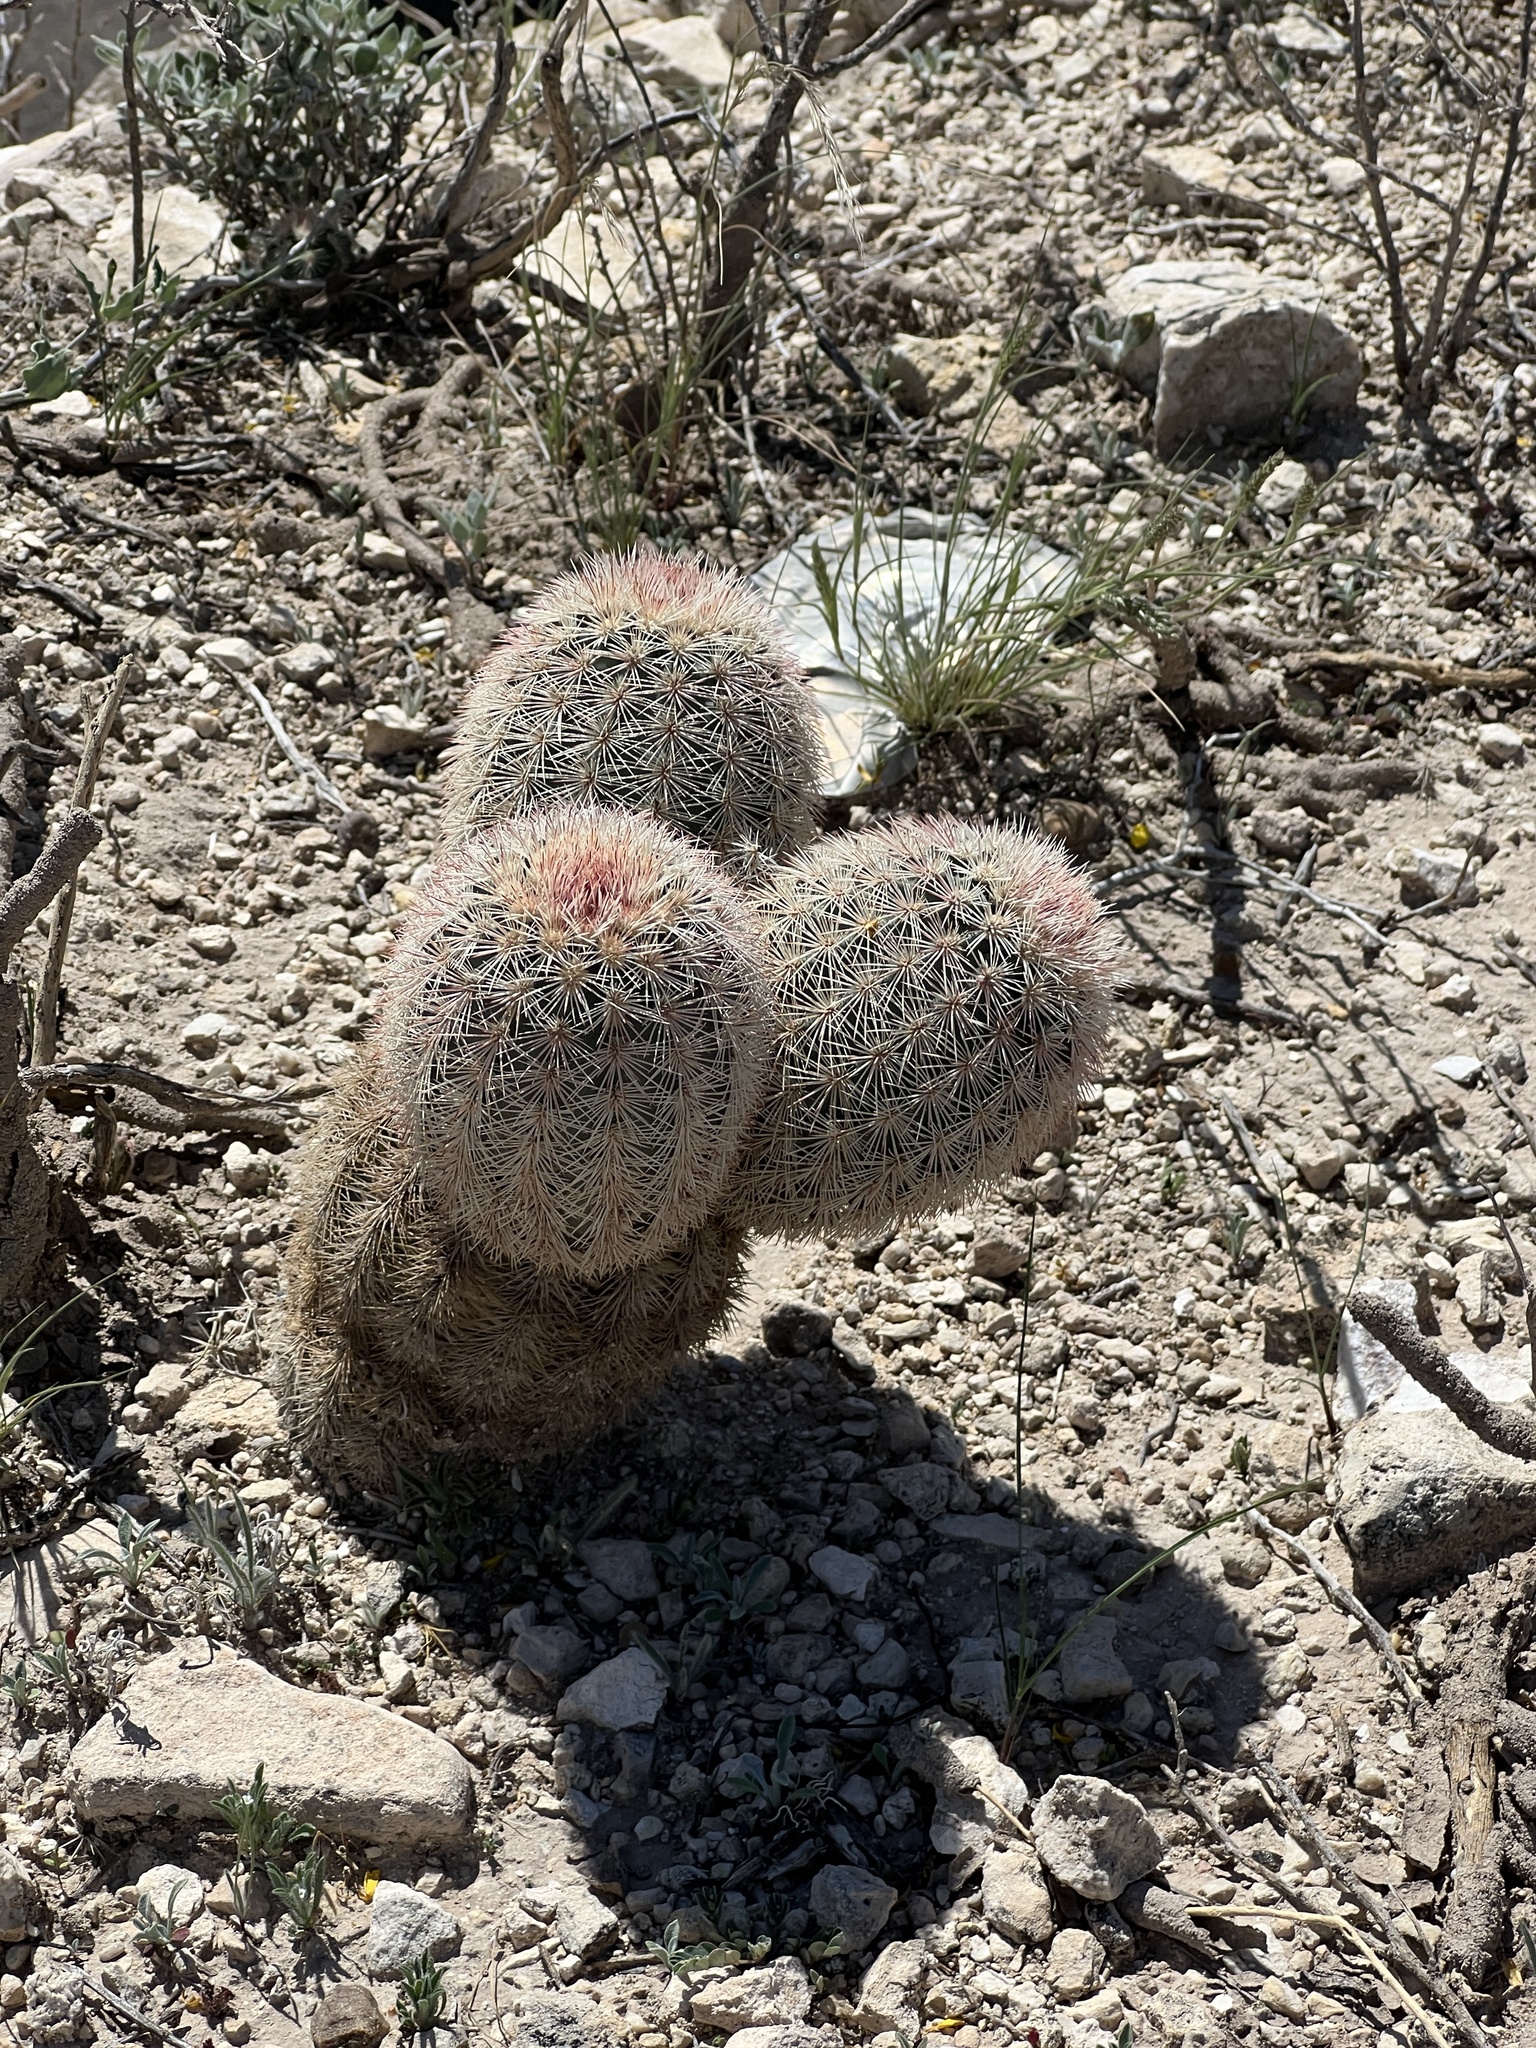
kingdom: Plantae
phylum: Tracheophyta
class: Magnoliopsida
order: Caryophyllales
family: Cactaceae
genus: Echinocereus
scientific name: Echinocereus dasyacanthus
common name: Spiny hedgehog cactus
